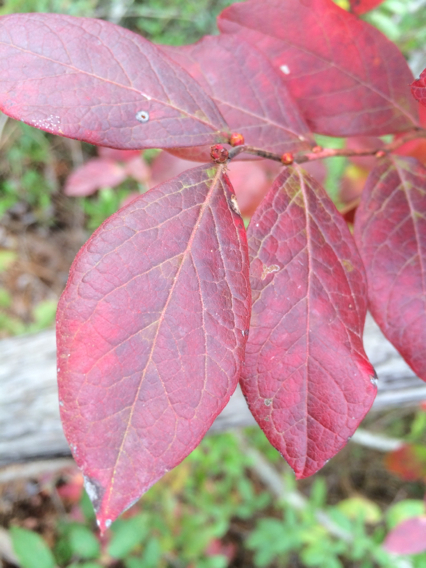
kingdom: Plantae
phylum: Tracheophyta
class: Magnoliopsida
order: Ericales
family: Ericaceae
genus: Vaccinium
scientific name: Vaccinium corymbosum
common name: Blueberry
